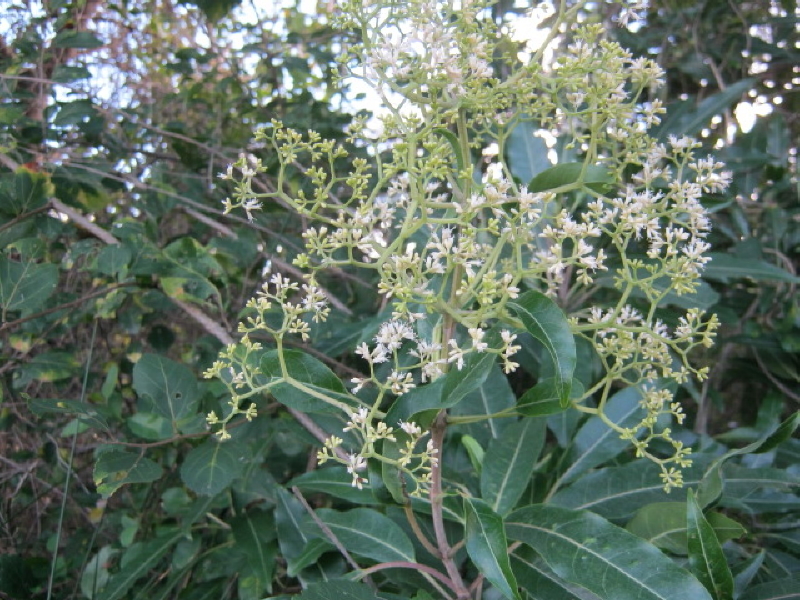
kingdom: Plantae
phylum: Tracheophyta
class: Magnoliopsida
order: Lamiales
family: Stilbaceae
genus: Nuxia
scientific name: Nuxia floribunda
